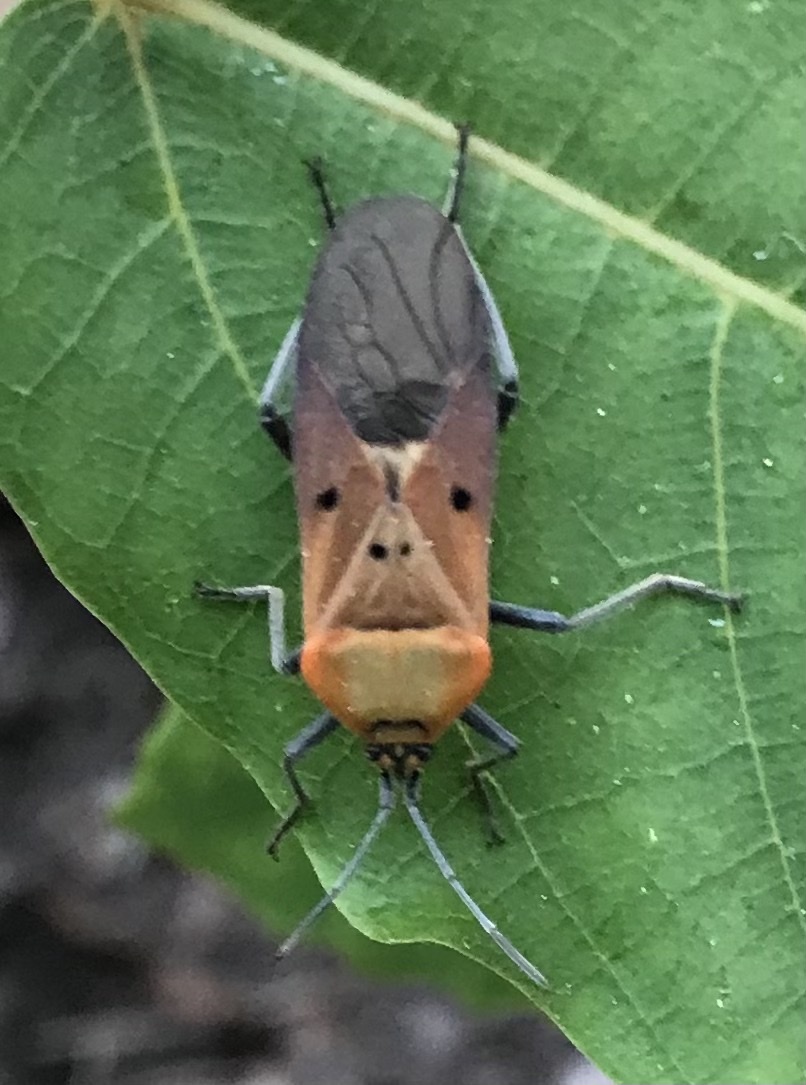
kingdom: Animalia
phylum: Arthropoda
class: Insecta
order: Hemiptera
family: Lygaeidae
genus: Microspilus
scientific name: Microspilus proximus
